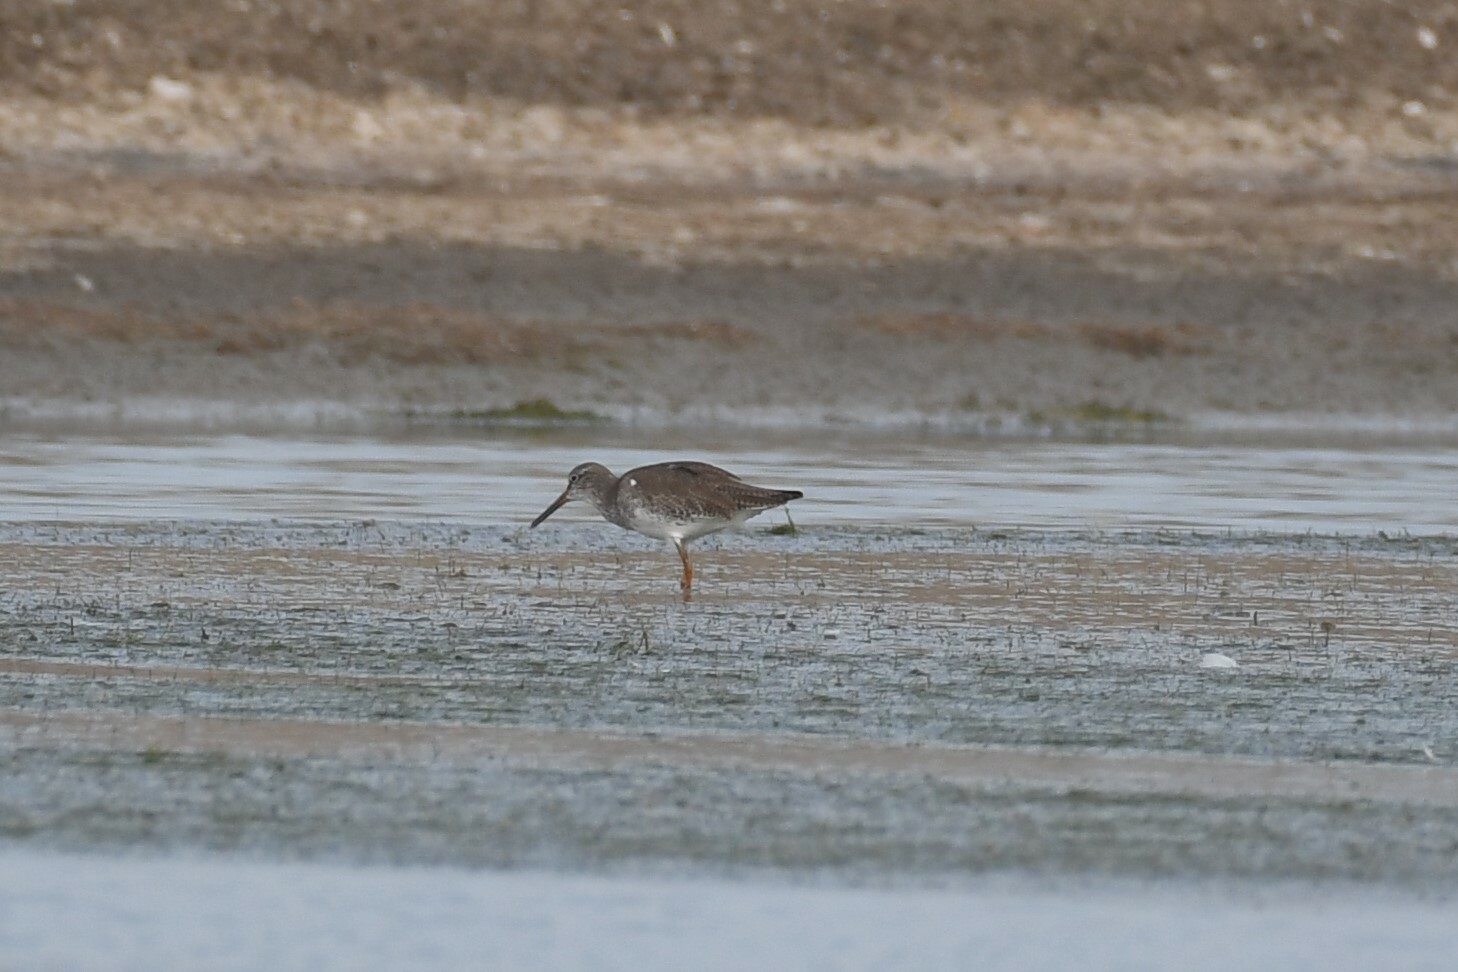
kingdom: Animalia
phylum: Chordata
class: Aves
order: Charadriiformes
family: Scolopacidae
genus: Tringa
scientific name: Tringa totanus
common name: Common redshank
